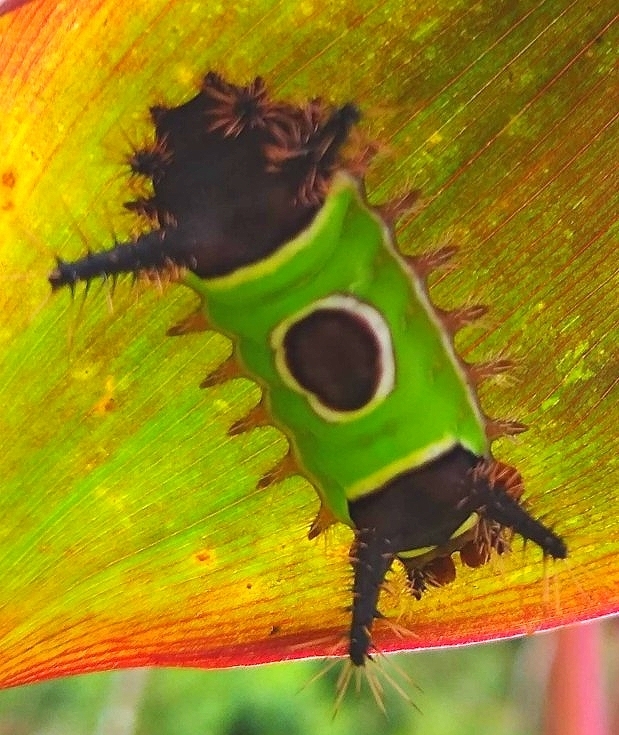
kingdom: Animalia
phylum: Arthropoda
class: Insecta
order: Lepidoptera
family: Limacodidae
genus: Acharia
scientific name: Acharia hyperoche
